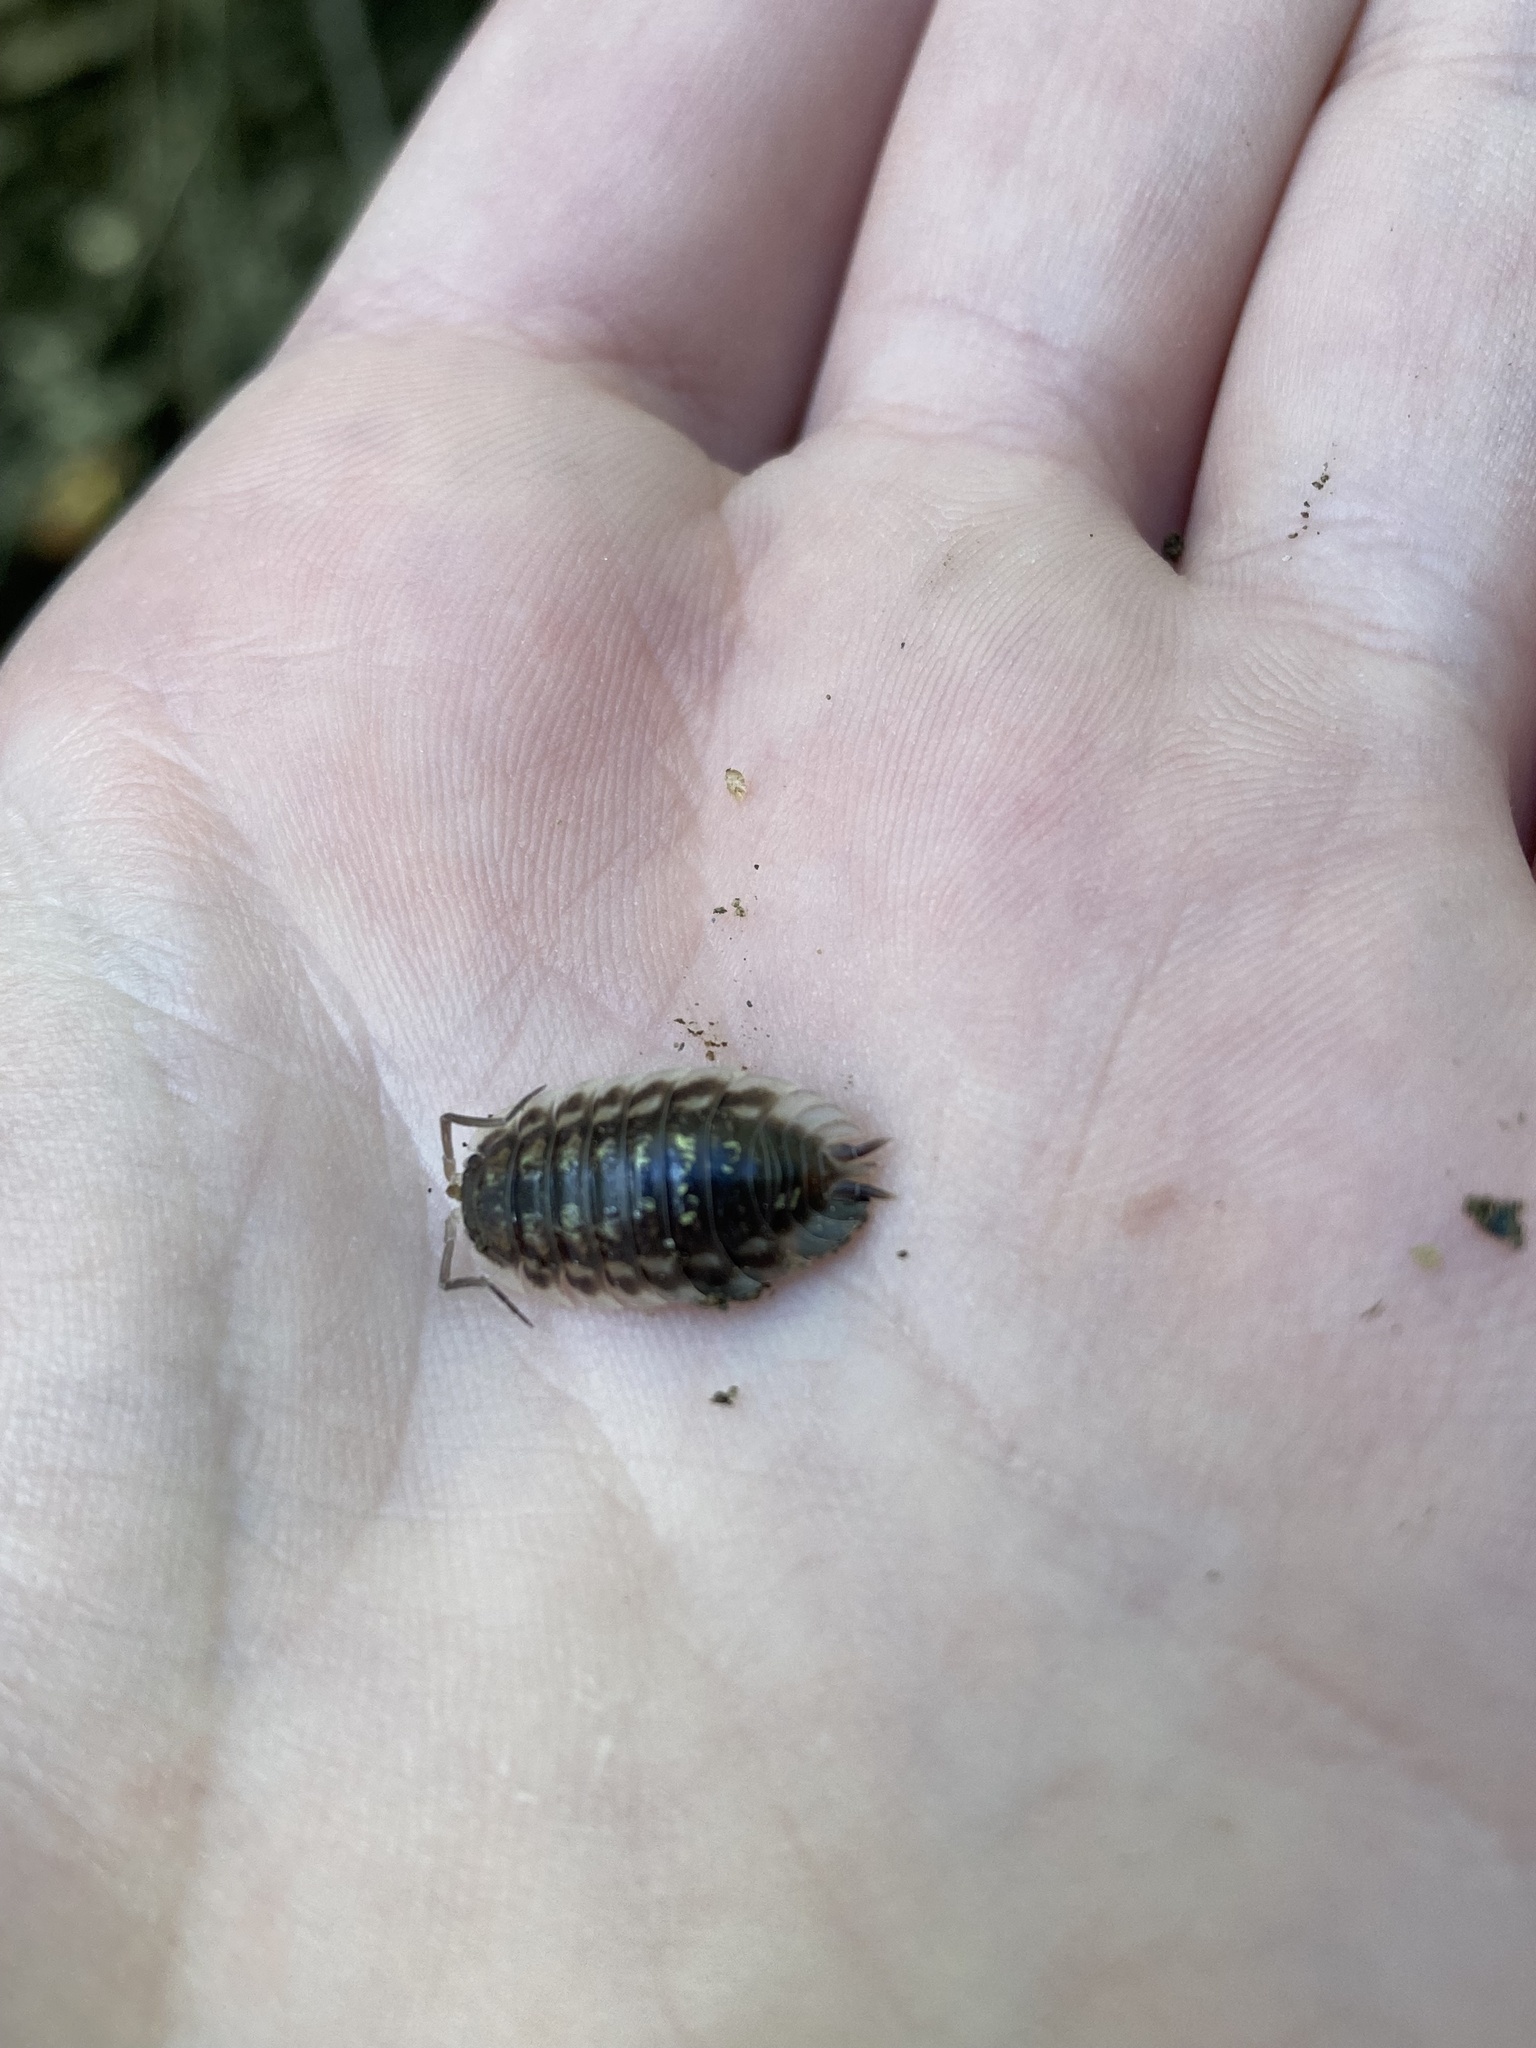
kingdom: Animalia
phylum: Arthropoda
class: Malacostraca
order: Isopoda
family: Oniscidae
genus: Oniscus
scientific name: Oniscus asellus
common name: Common shiny woodlouse
